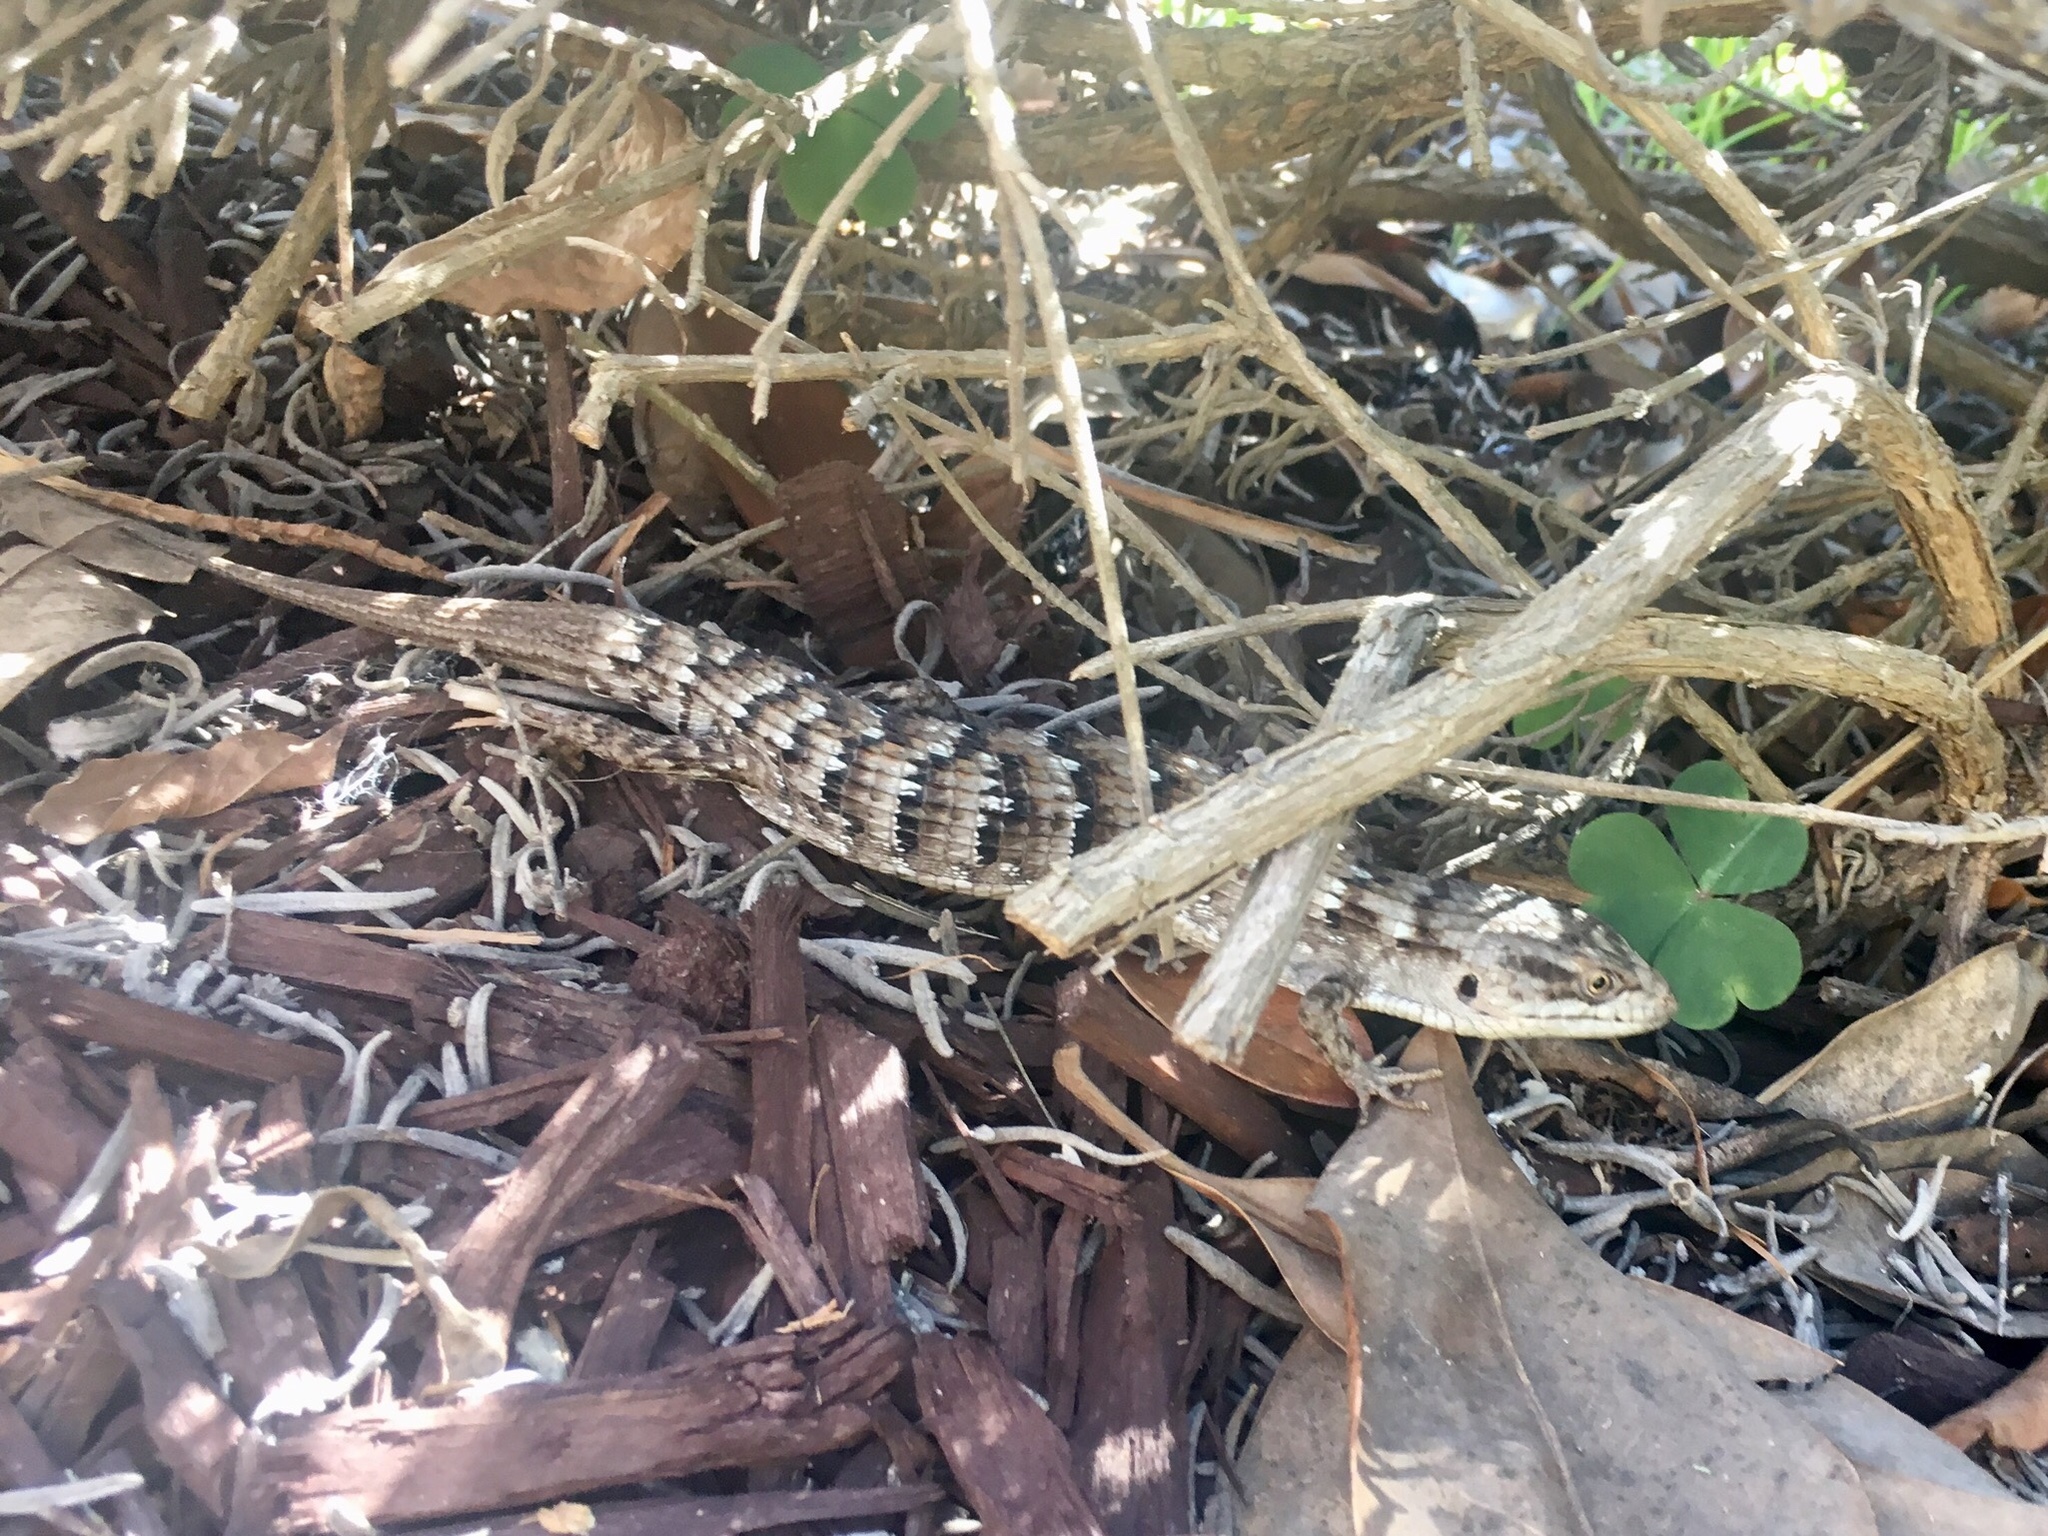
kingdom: Animalia
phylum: Chordata
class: Squamata
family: Anguidae
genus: Elgaria
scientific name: Elgaria multicarinata
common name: Southern alligator lizard
